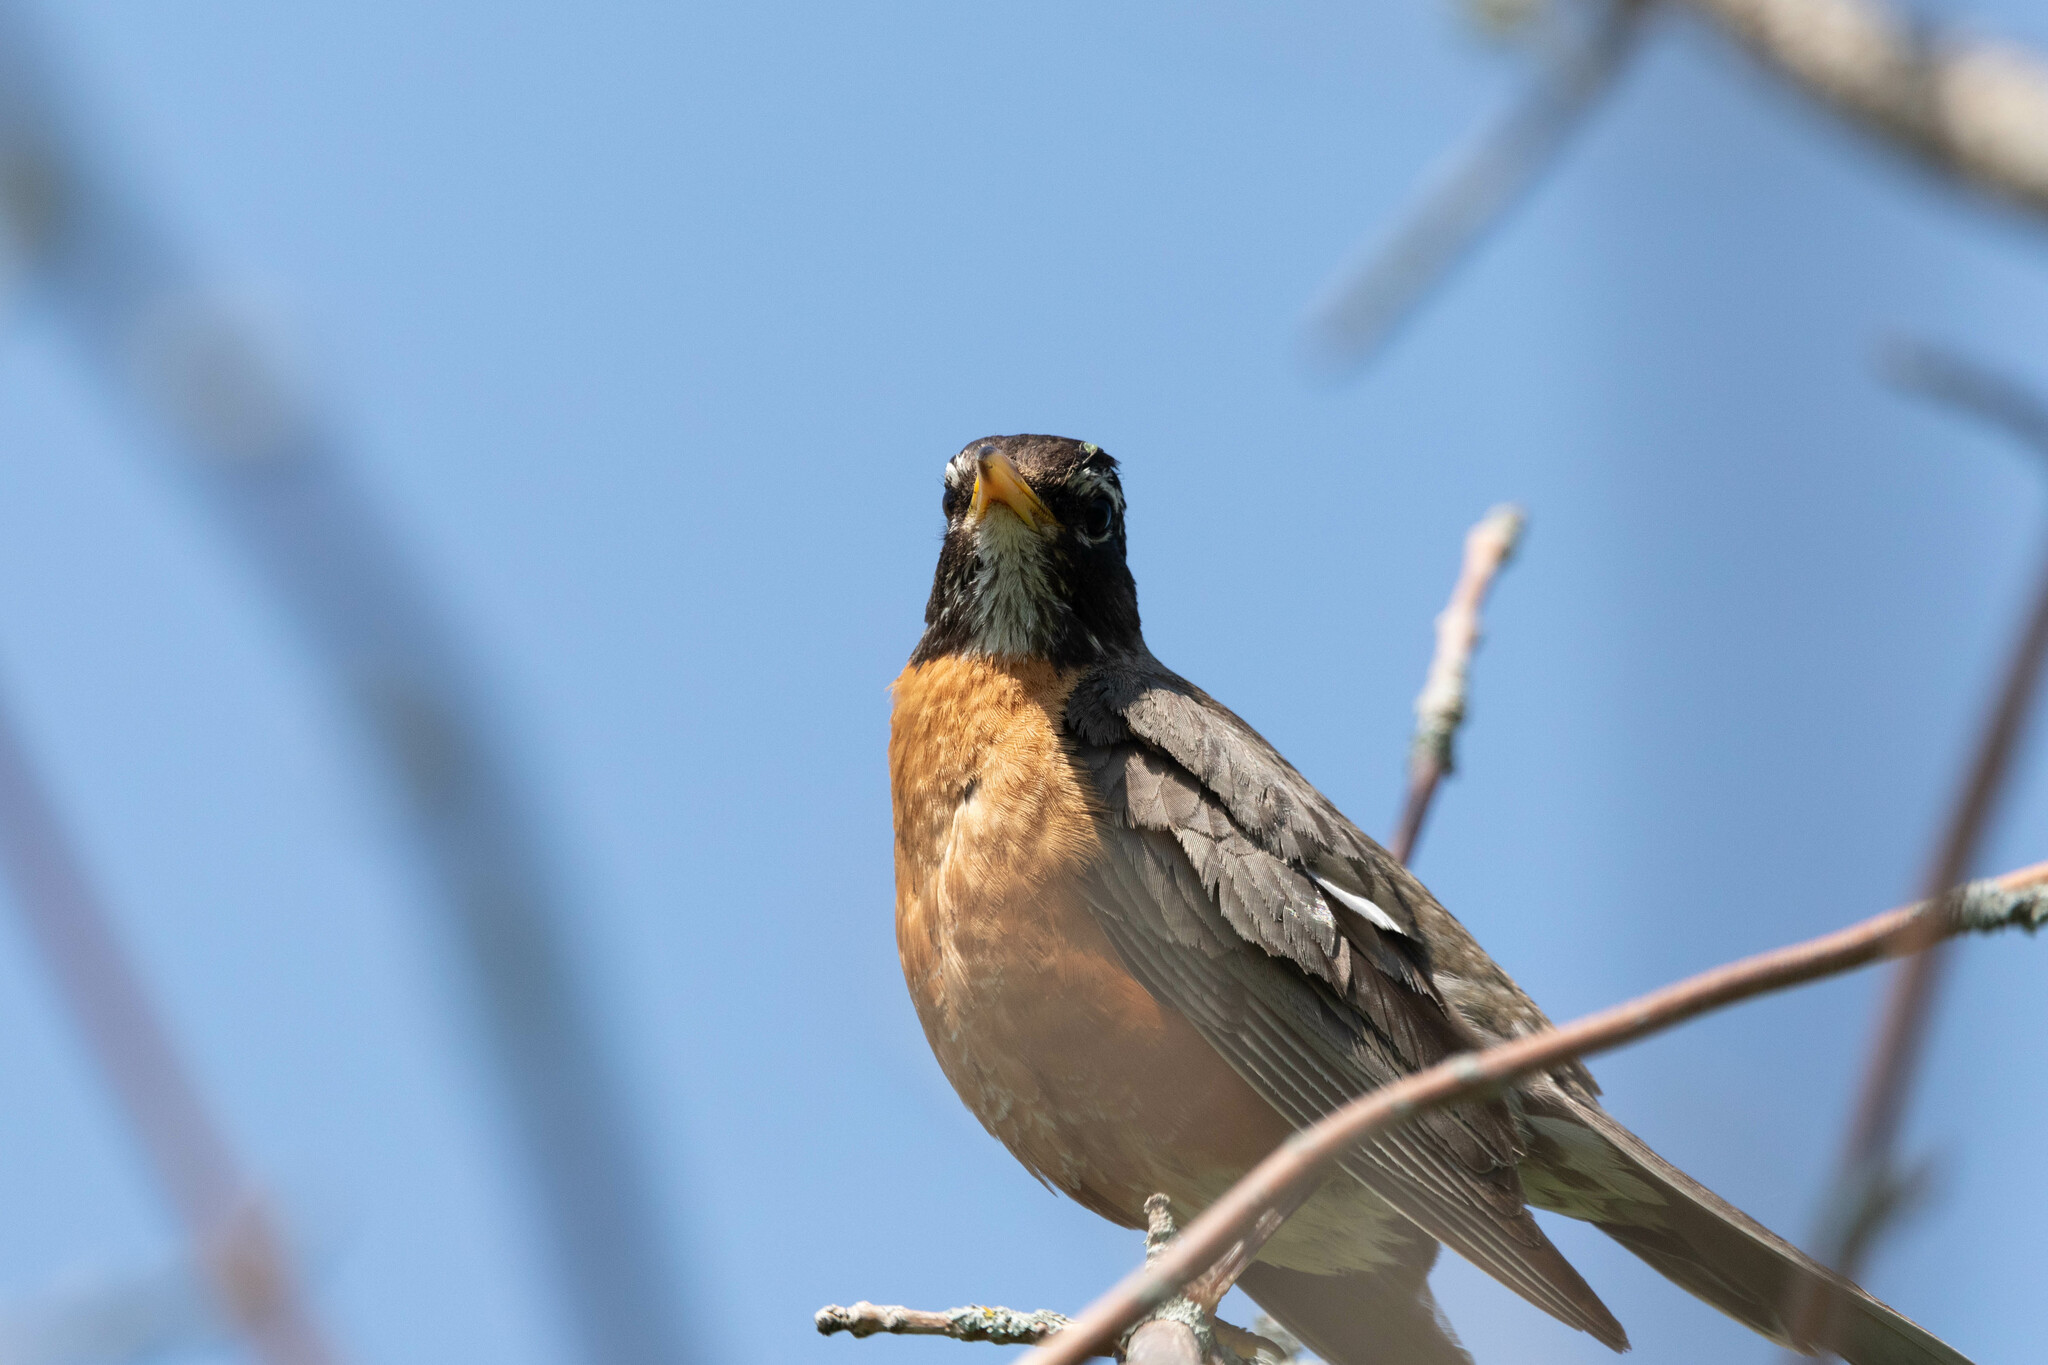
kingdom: Animalia
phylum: Chordata
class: Aves
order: Passeriformes
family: Turdidae
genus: Turdus
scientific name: Turdus migratorius
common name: American robin
